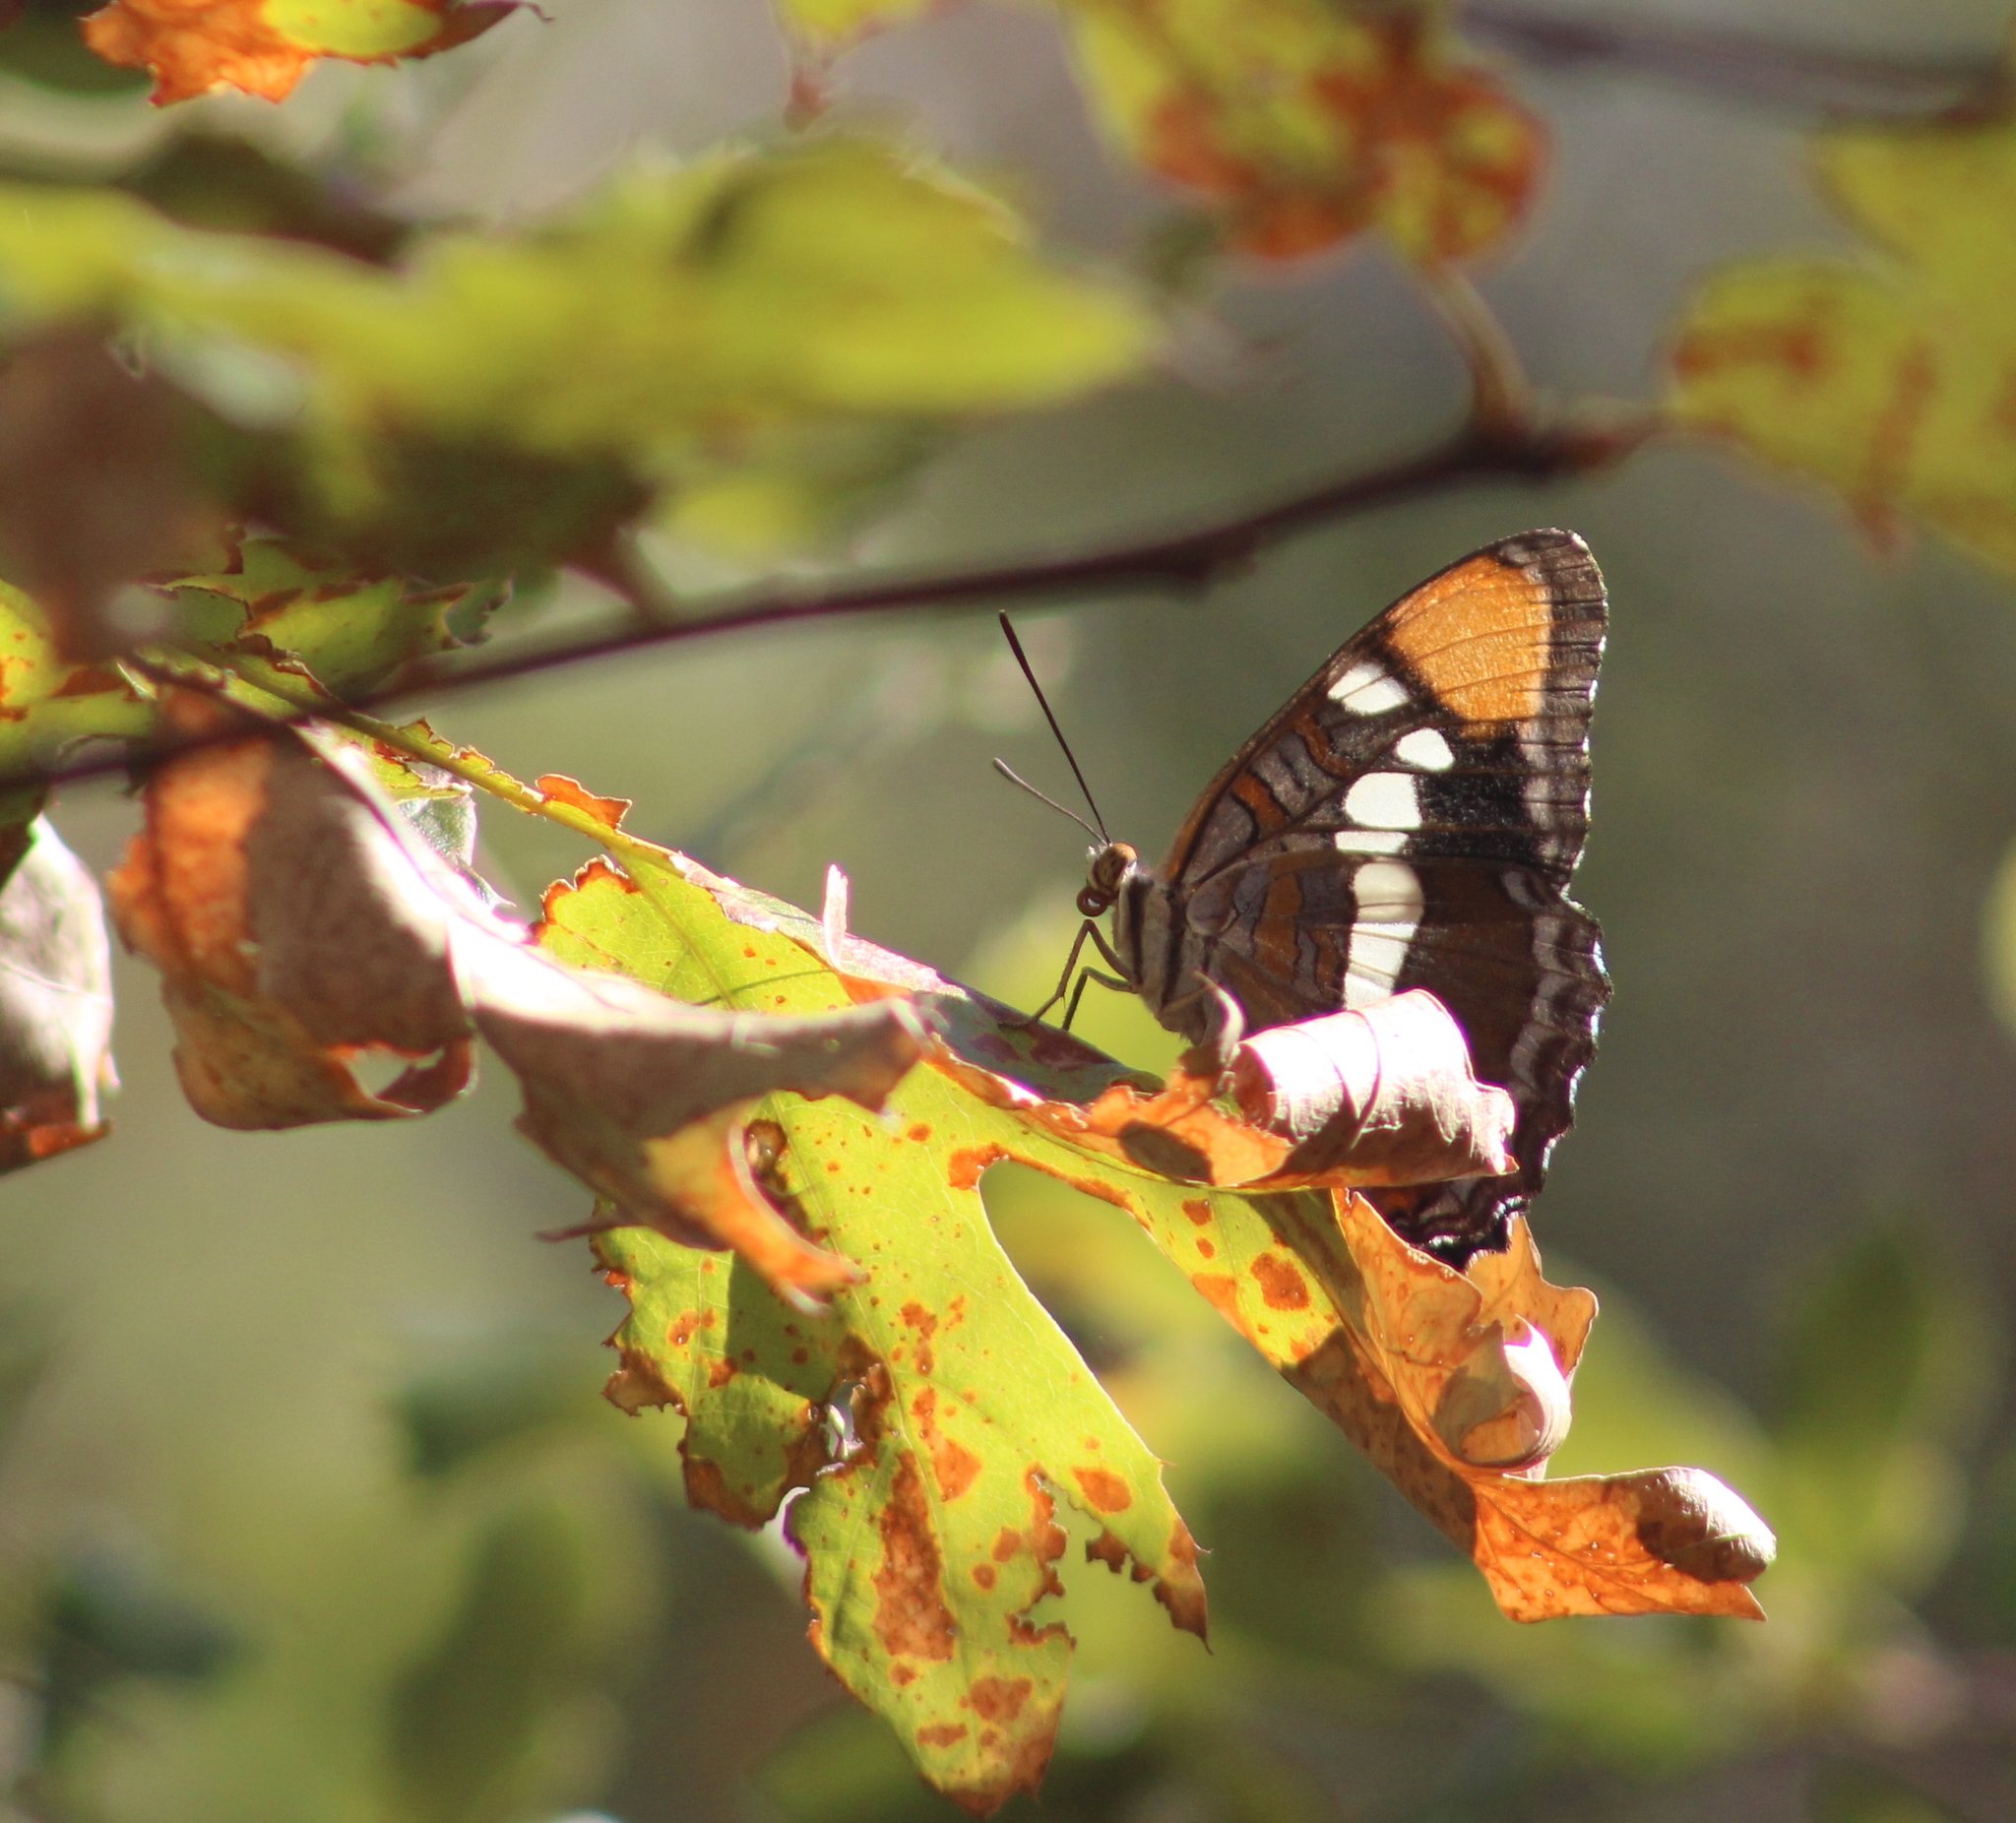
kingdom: Animalia
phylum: Arthropoda
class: Insecta
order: Lepidoptera
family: Nymphalidae
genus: Limenitis
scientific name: Limenitis bredowii
